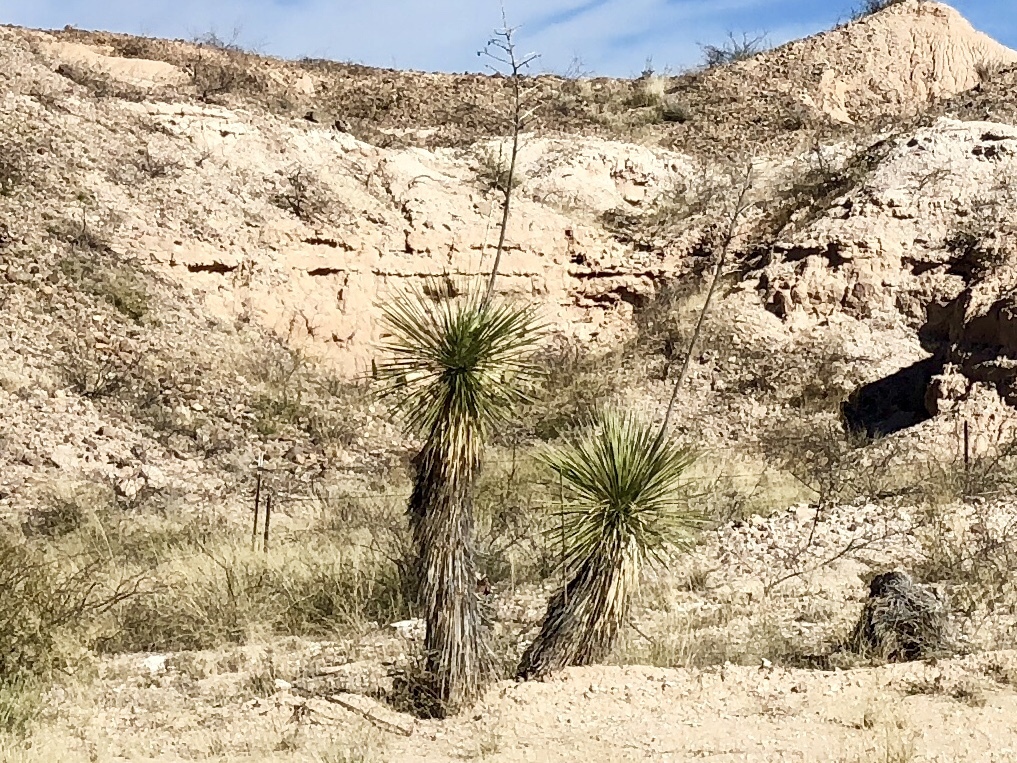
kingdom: Plantae
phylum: Tracheophyta
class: Liliopsida
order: Asparagales
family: Asparagaceae
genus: Yucca
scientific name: Yucca elata
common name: Palmella
